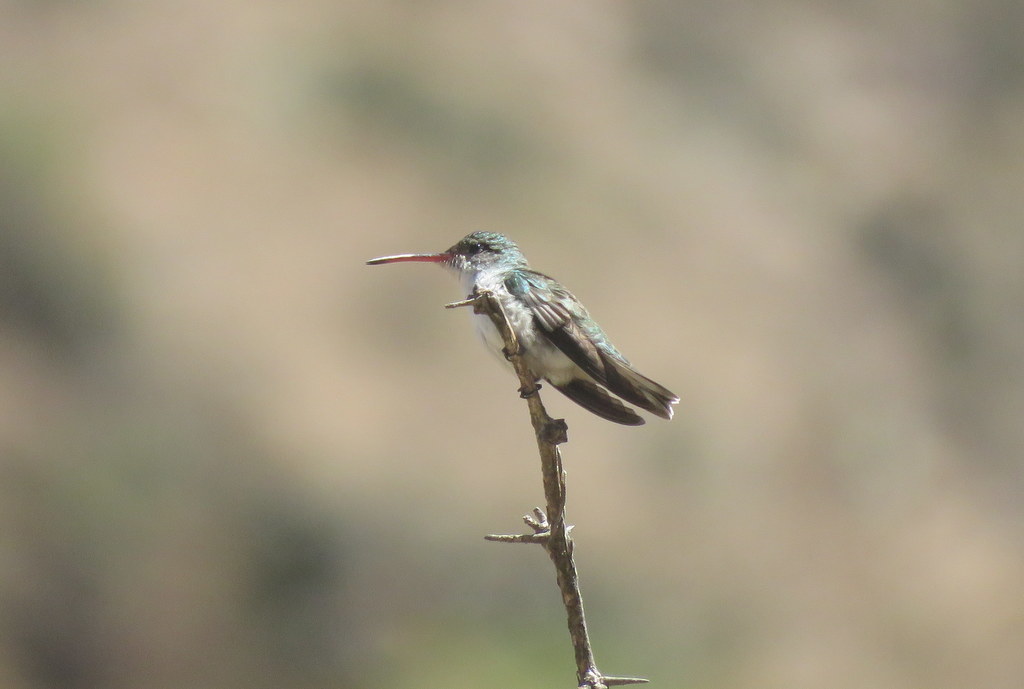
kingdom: Animalia
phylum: Chordata
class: Aves
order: Apodiformes
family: Trochilidae
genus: Elliotomyia
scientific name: Elliotomyia chionogaster
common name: White-bellied hummingbird
